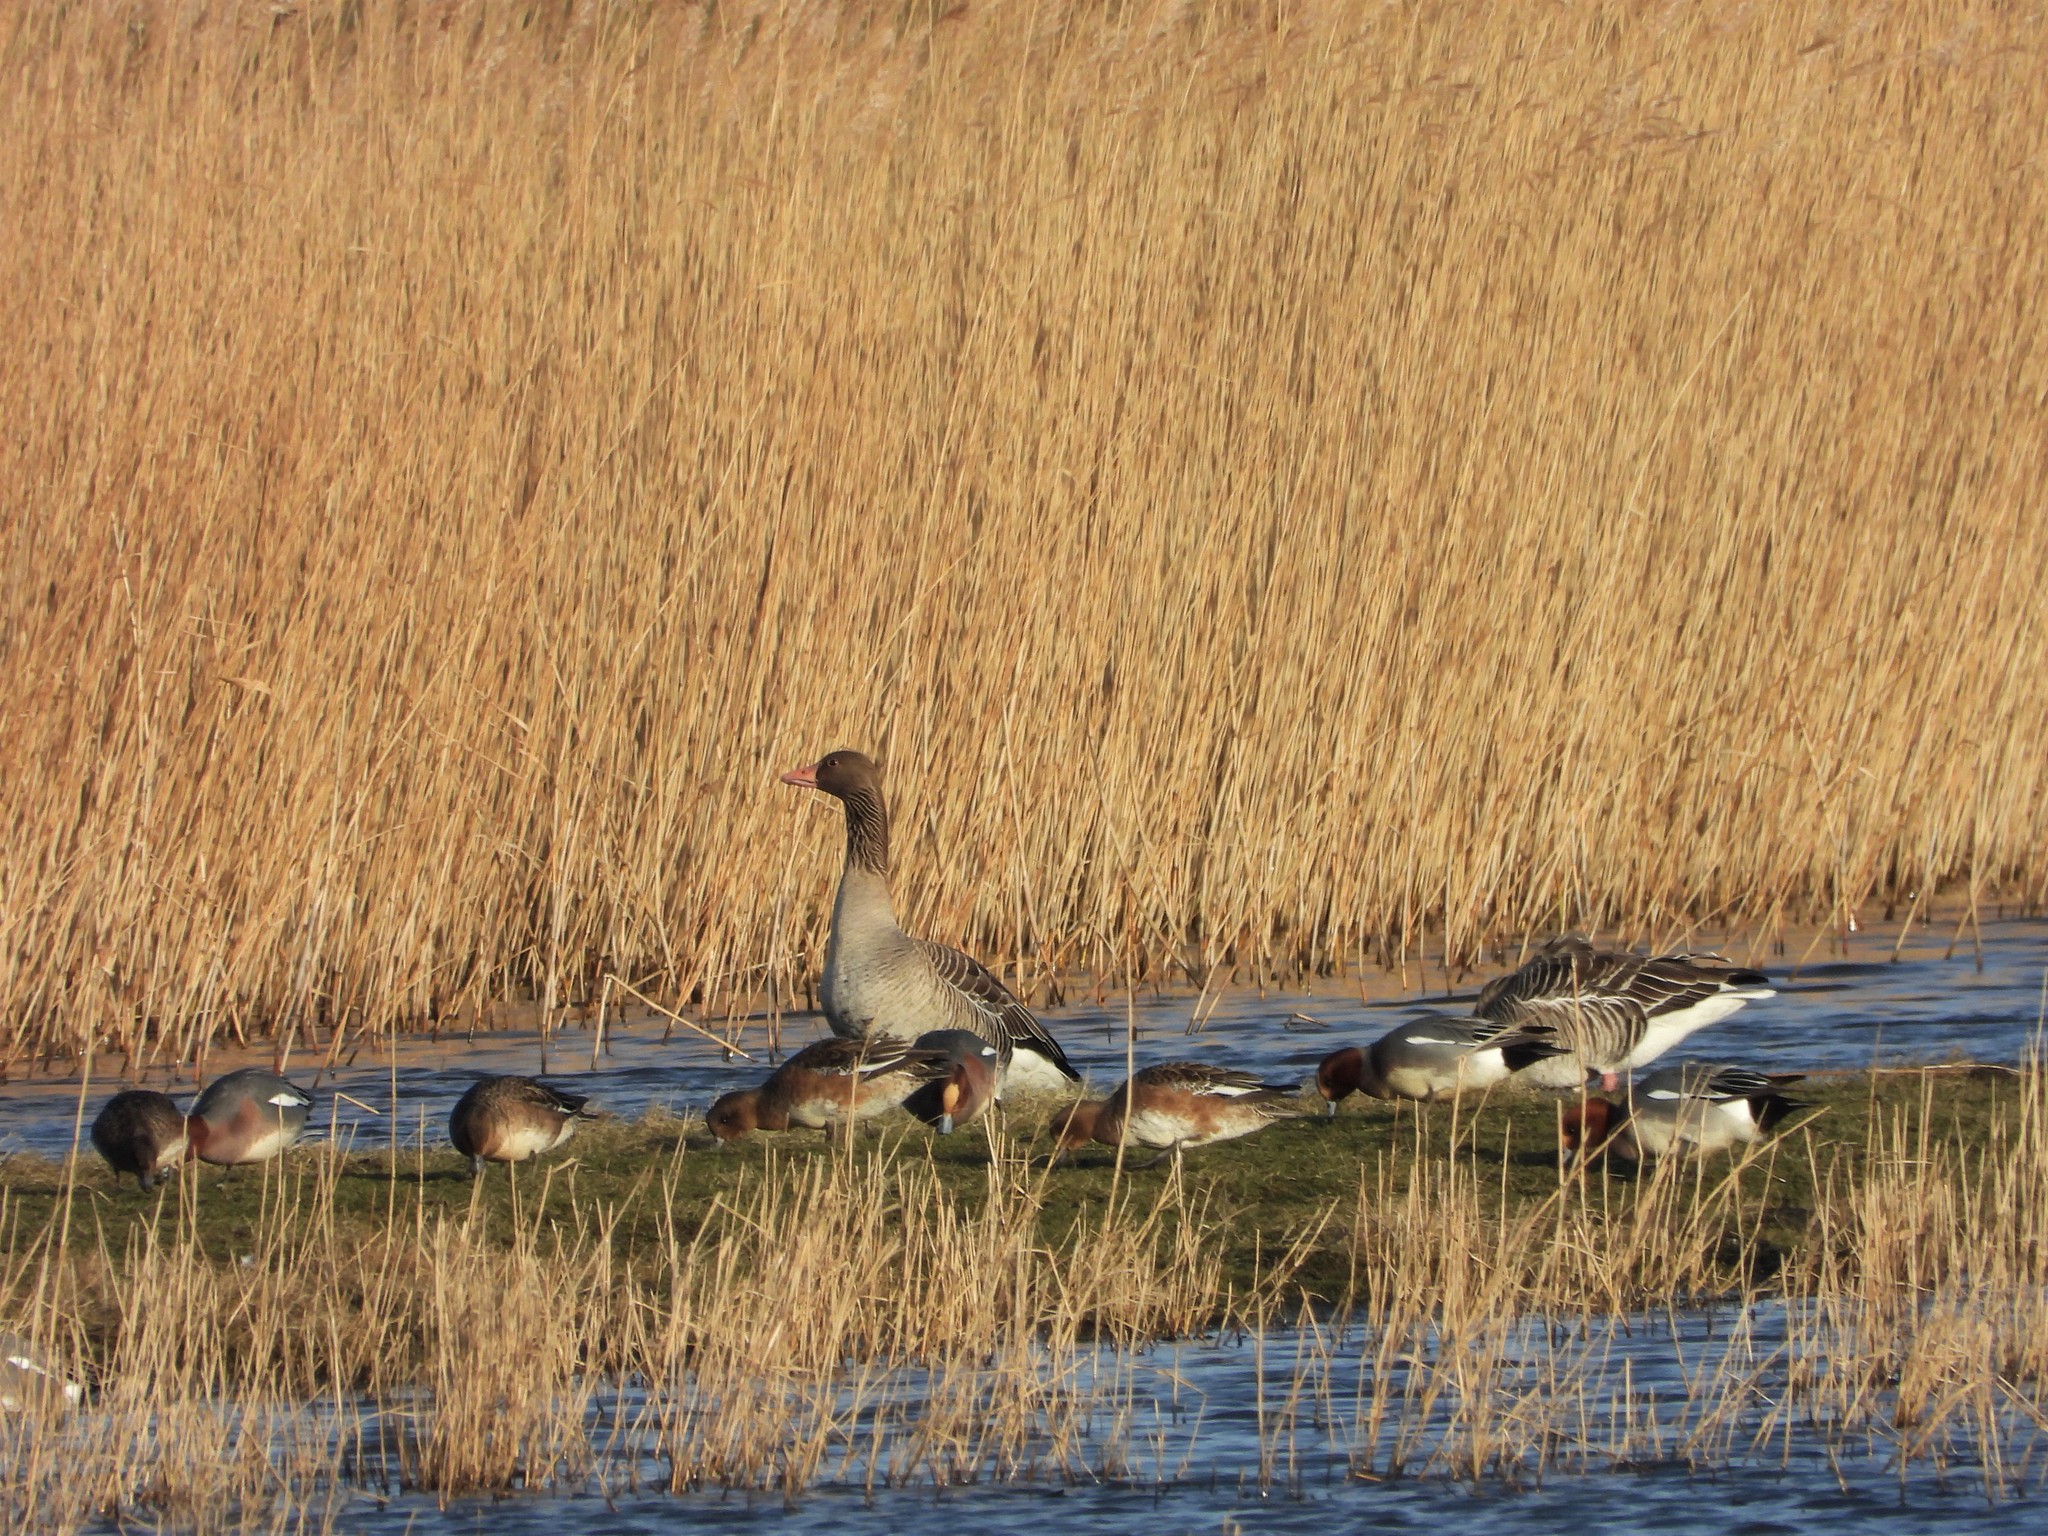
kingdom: Animalia
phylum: Chordata
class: Aves
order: Anseriformes
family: Anatidae
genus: Anser
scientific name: Anser anser
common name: Greylag goose
